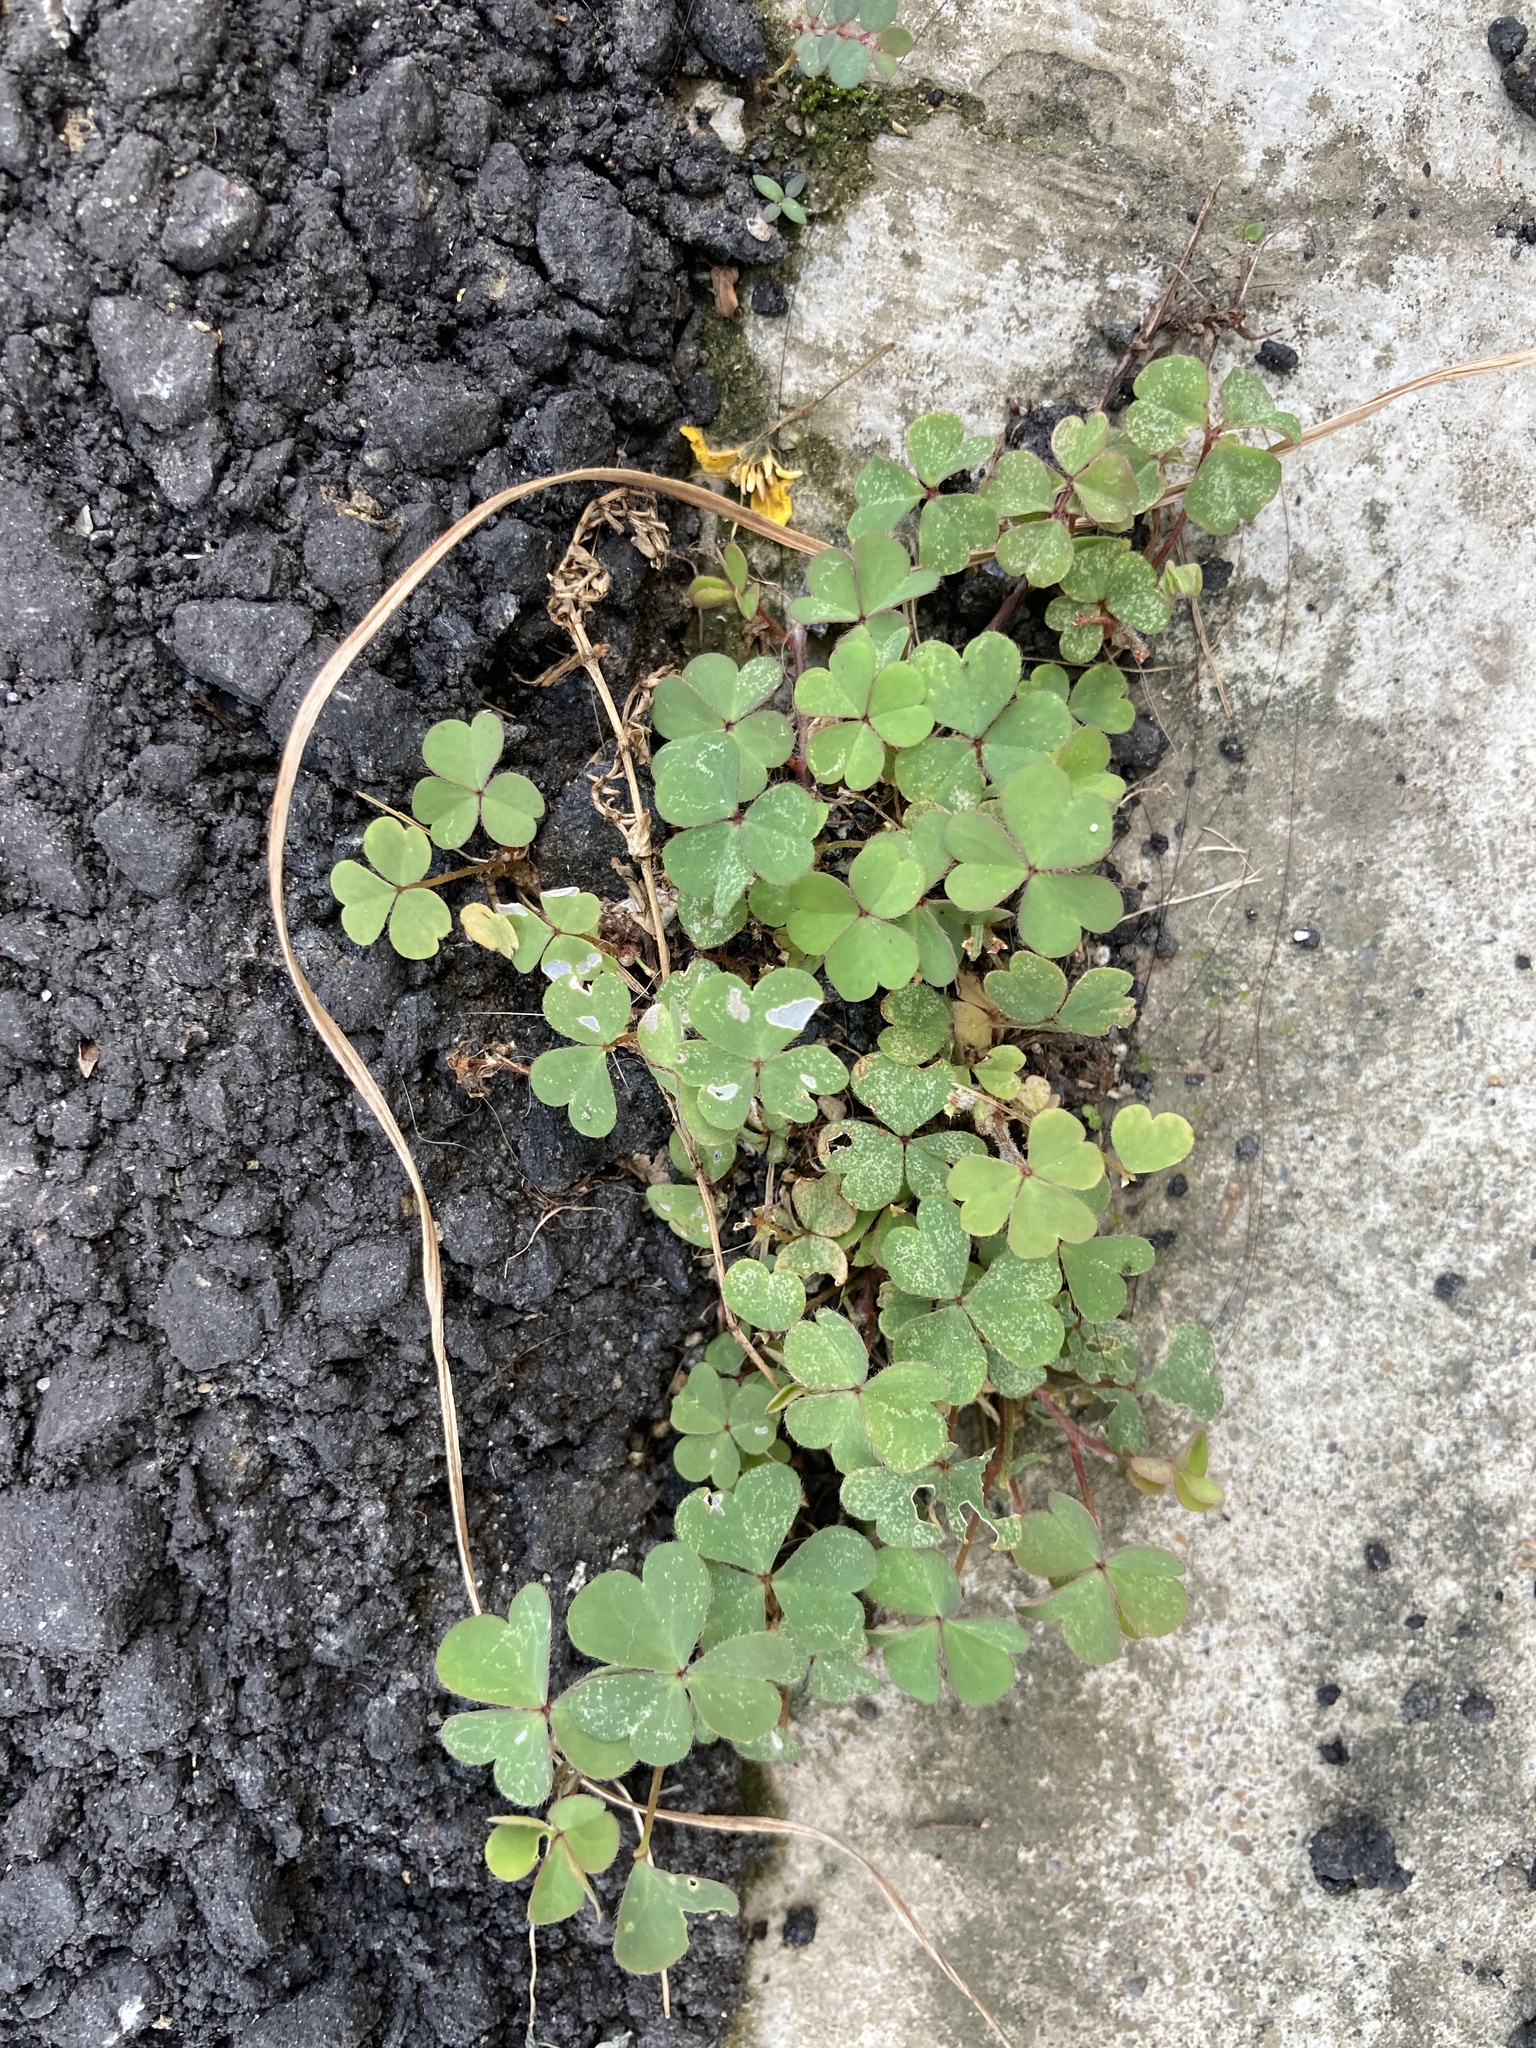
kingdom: Plantae
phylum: Tracheophyta
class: Magnoliopsida
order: Oxalidales
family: Oxalidaceae
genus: Oxalis
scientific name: Oxalis corniculata
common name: Procumbent yellow-sorrel
